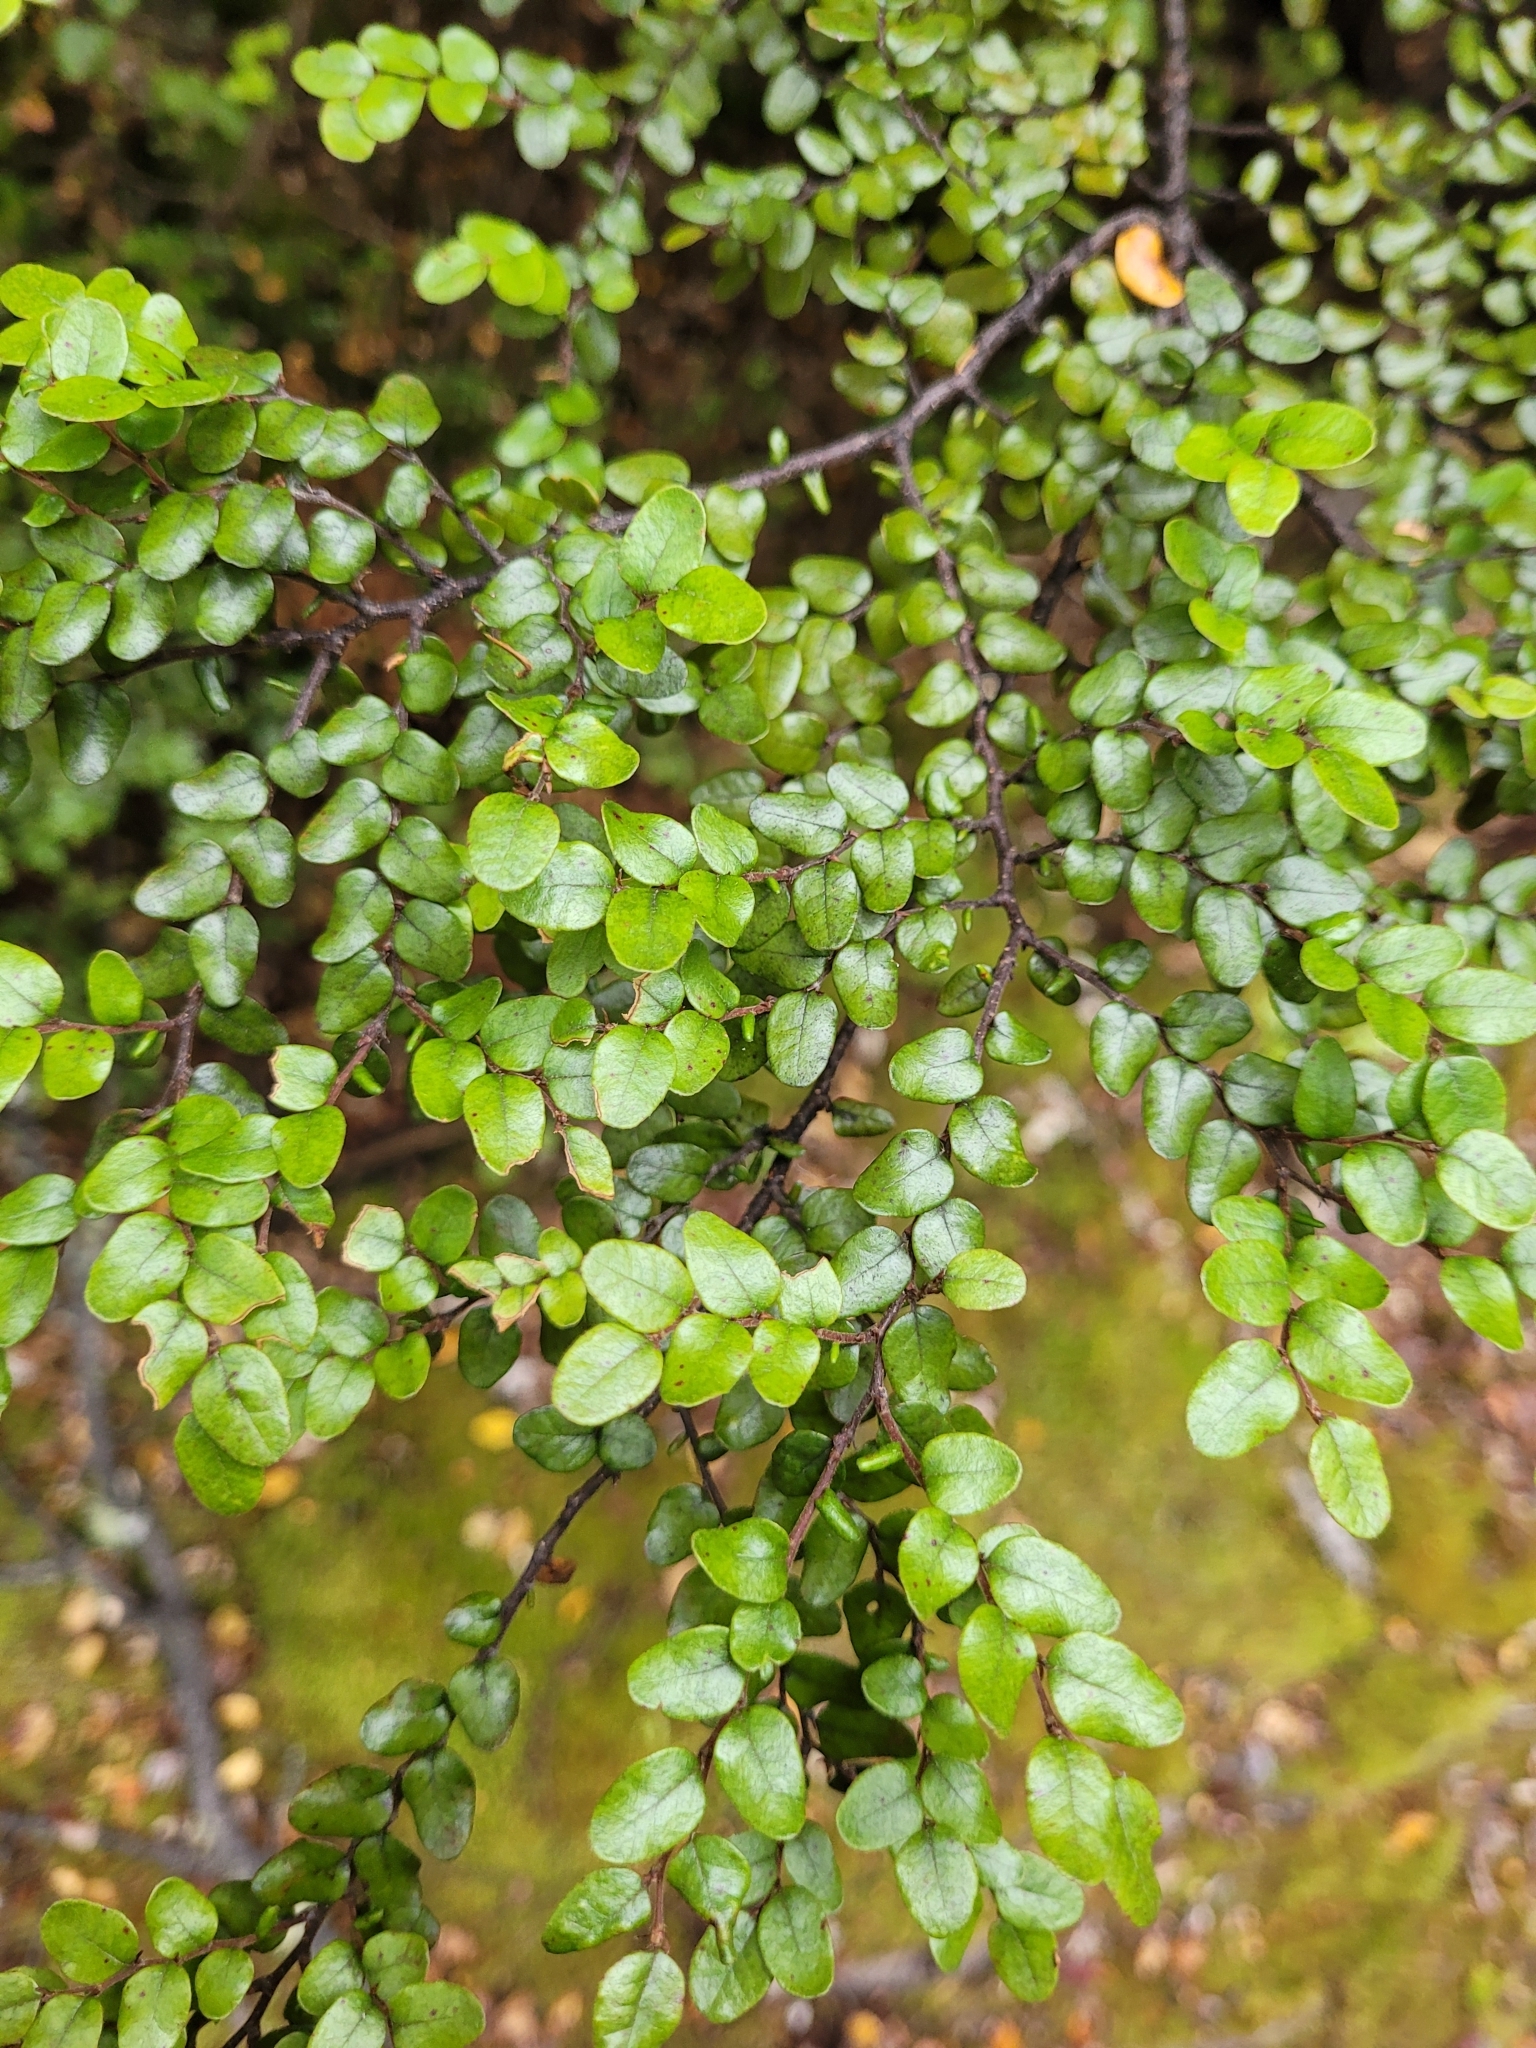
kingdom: Plantae
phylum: Tracheophyta
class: Magnoliopsida
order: Fagales
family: Nothofagaceae
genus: Nothofagus
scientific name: Nothofagus cliffortioides
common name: Mountain beech
